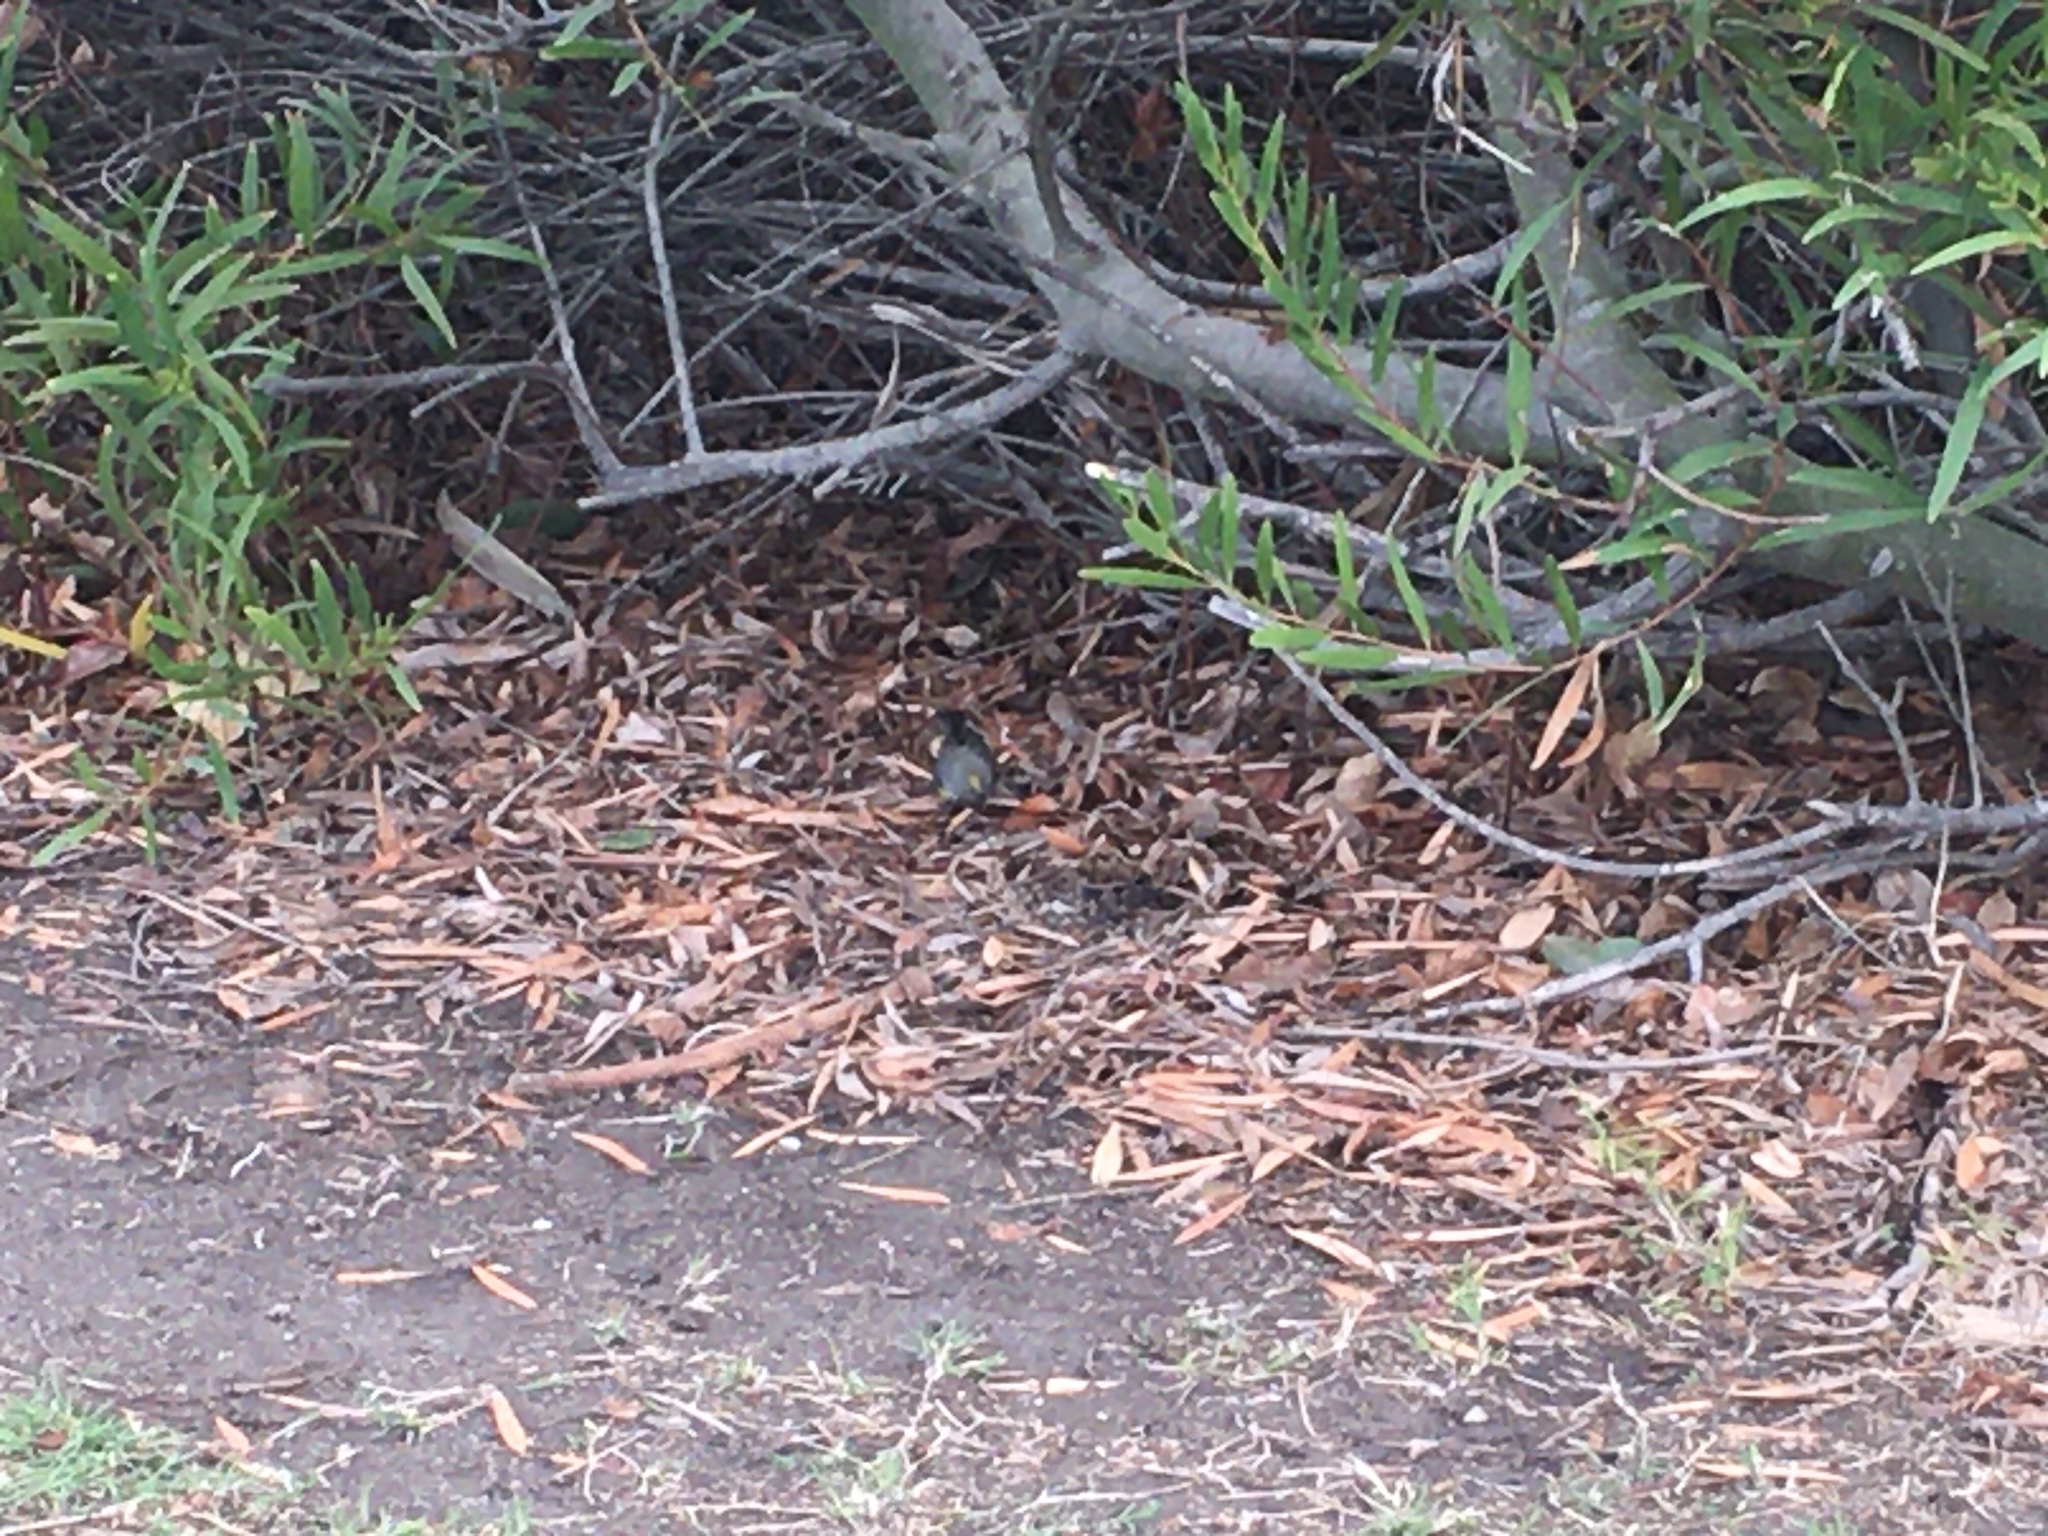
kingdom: Animalia
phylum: Chordata
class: Aves
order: Passeriformes
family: Parulidae
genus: Setophaga
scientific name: Setophaga coronata
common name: Myrtle warbler
